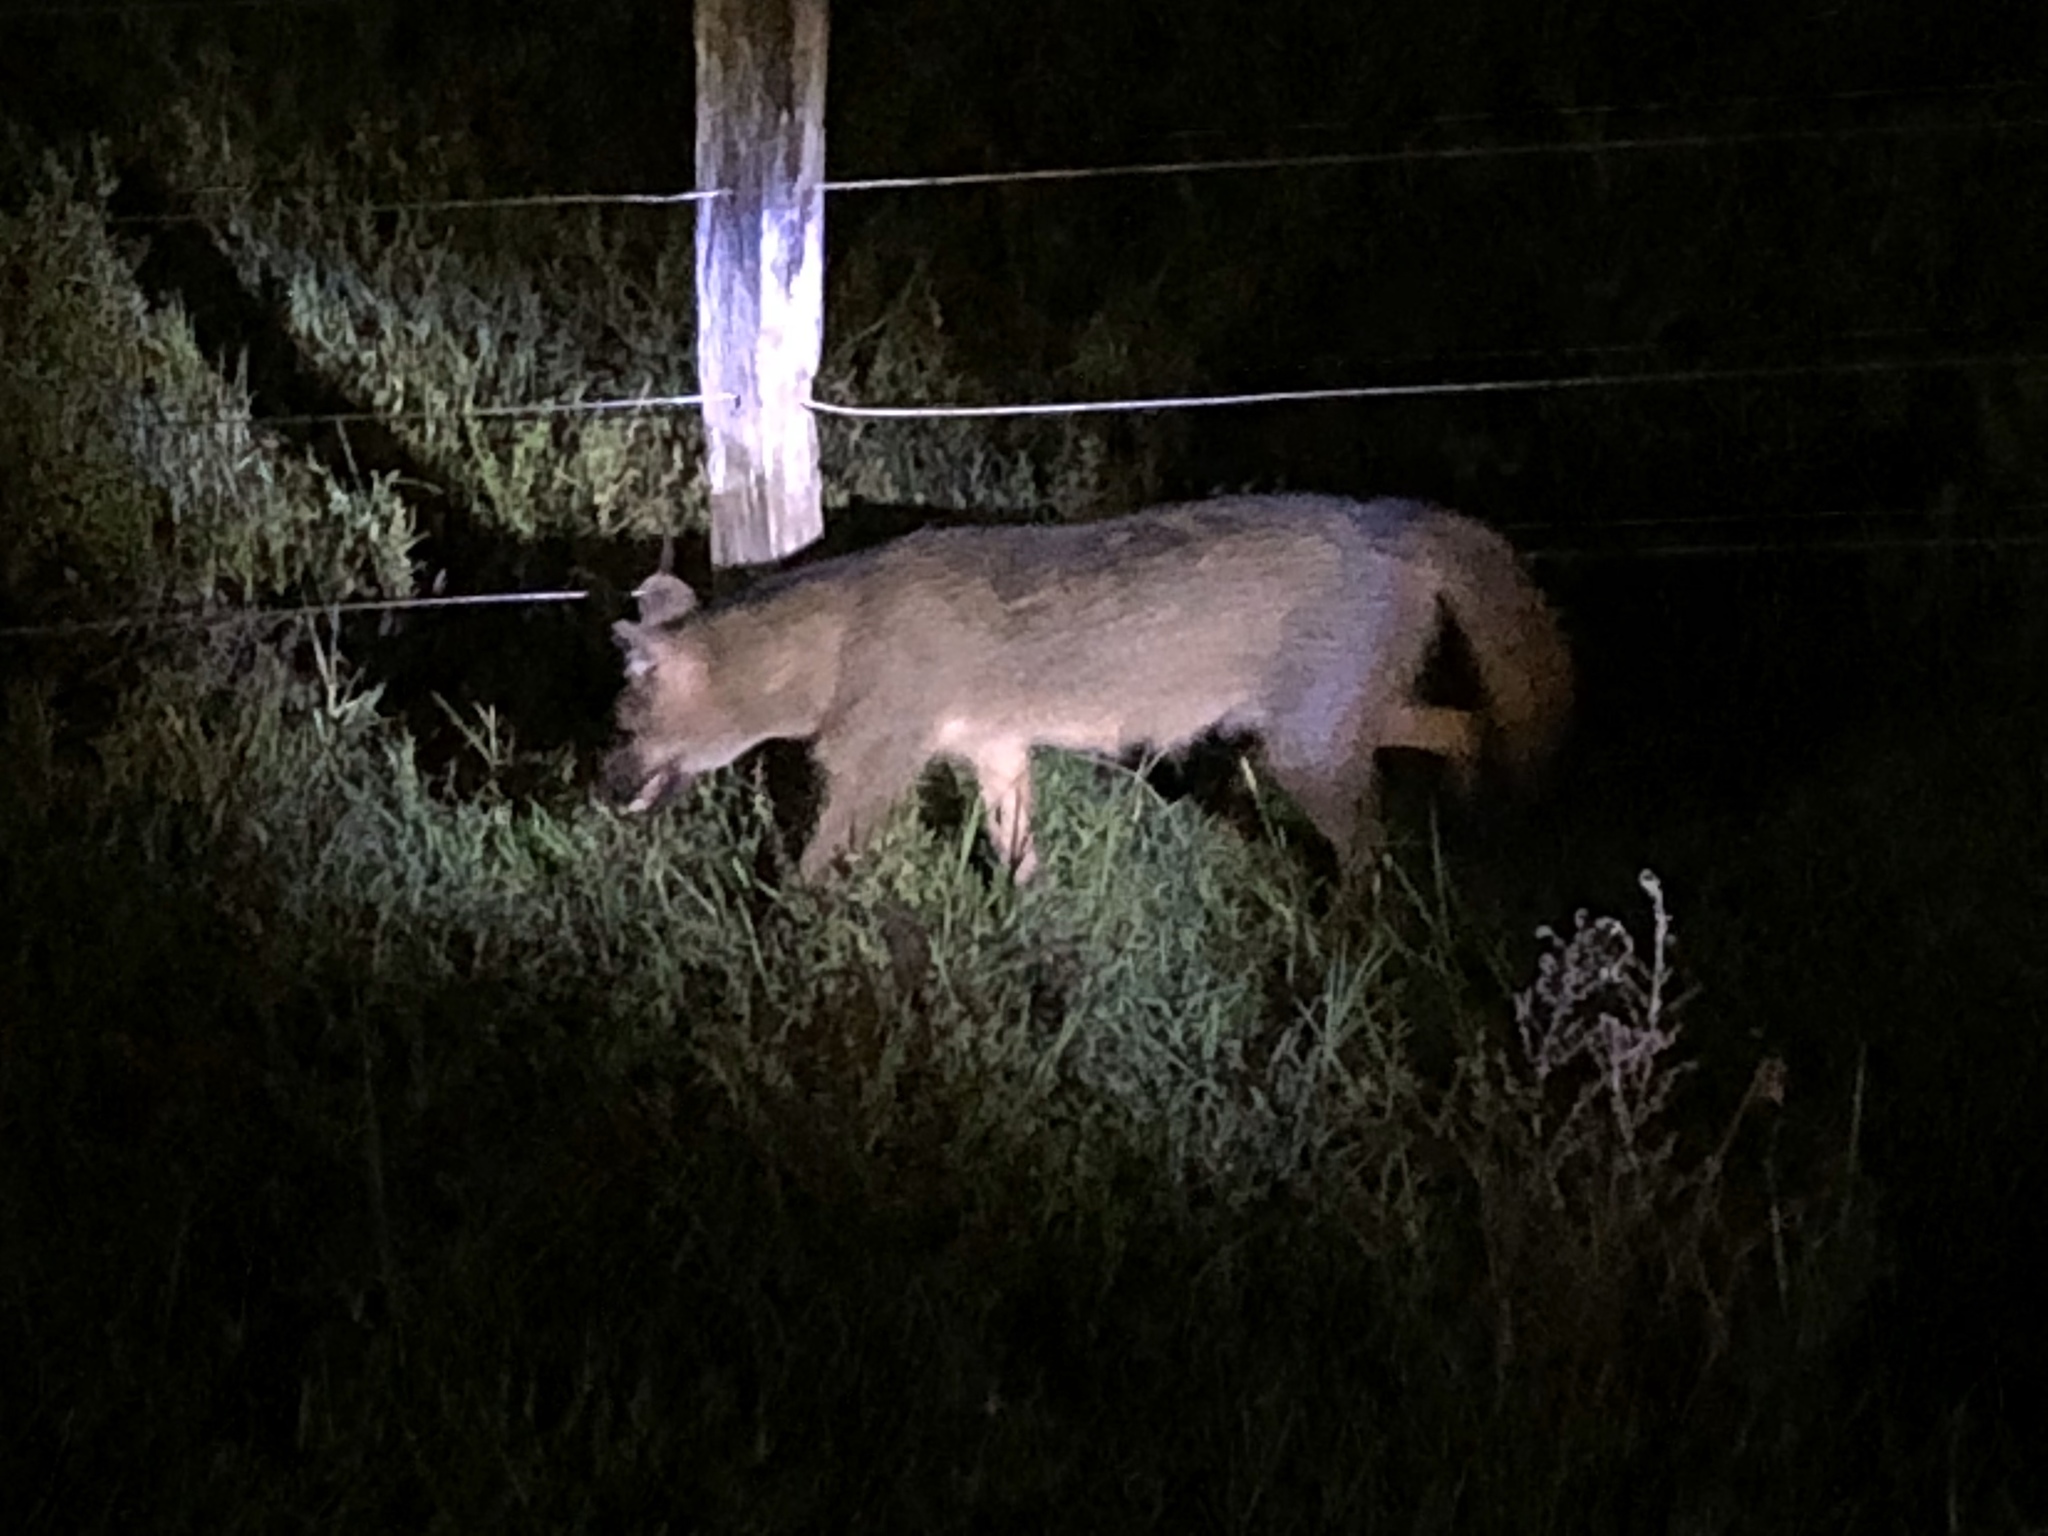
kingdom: Animalia
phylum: Chordata
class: Mammalia
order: Carnivora
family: Canidae
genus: Cerdocyon
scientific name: Cerdocyon thous
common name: Crab-eating fox
